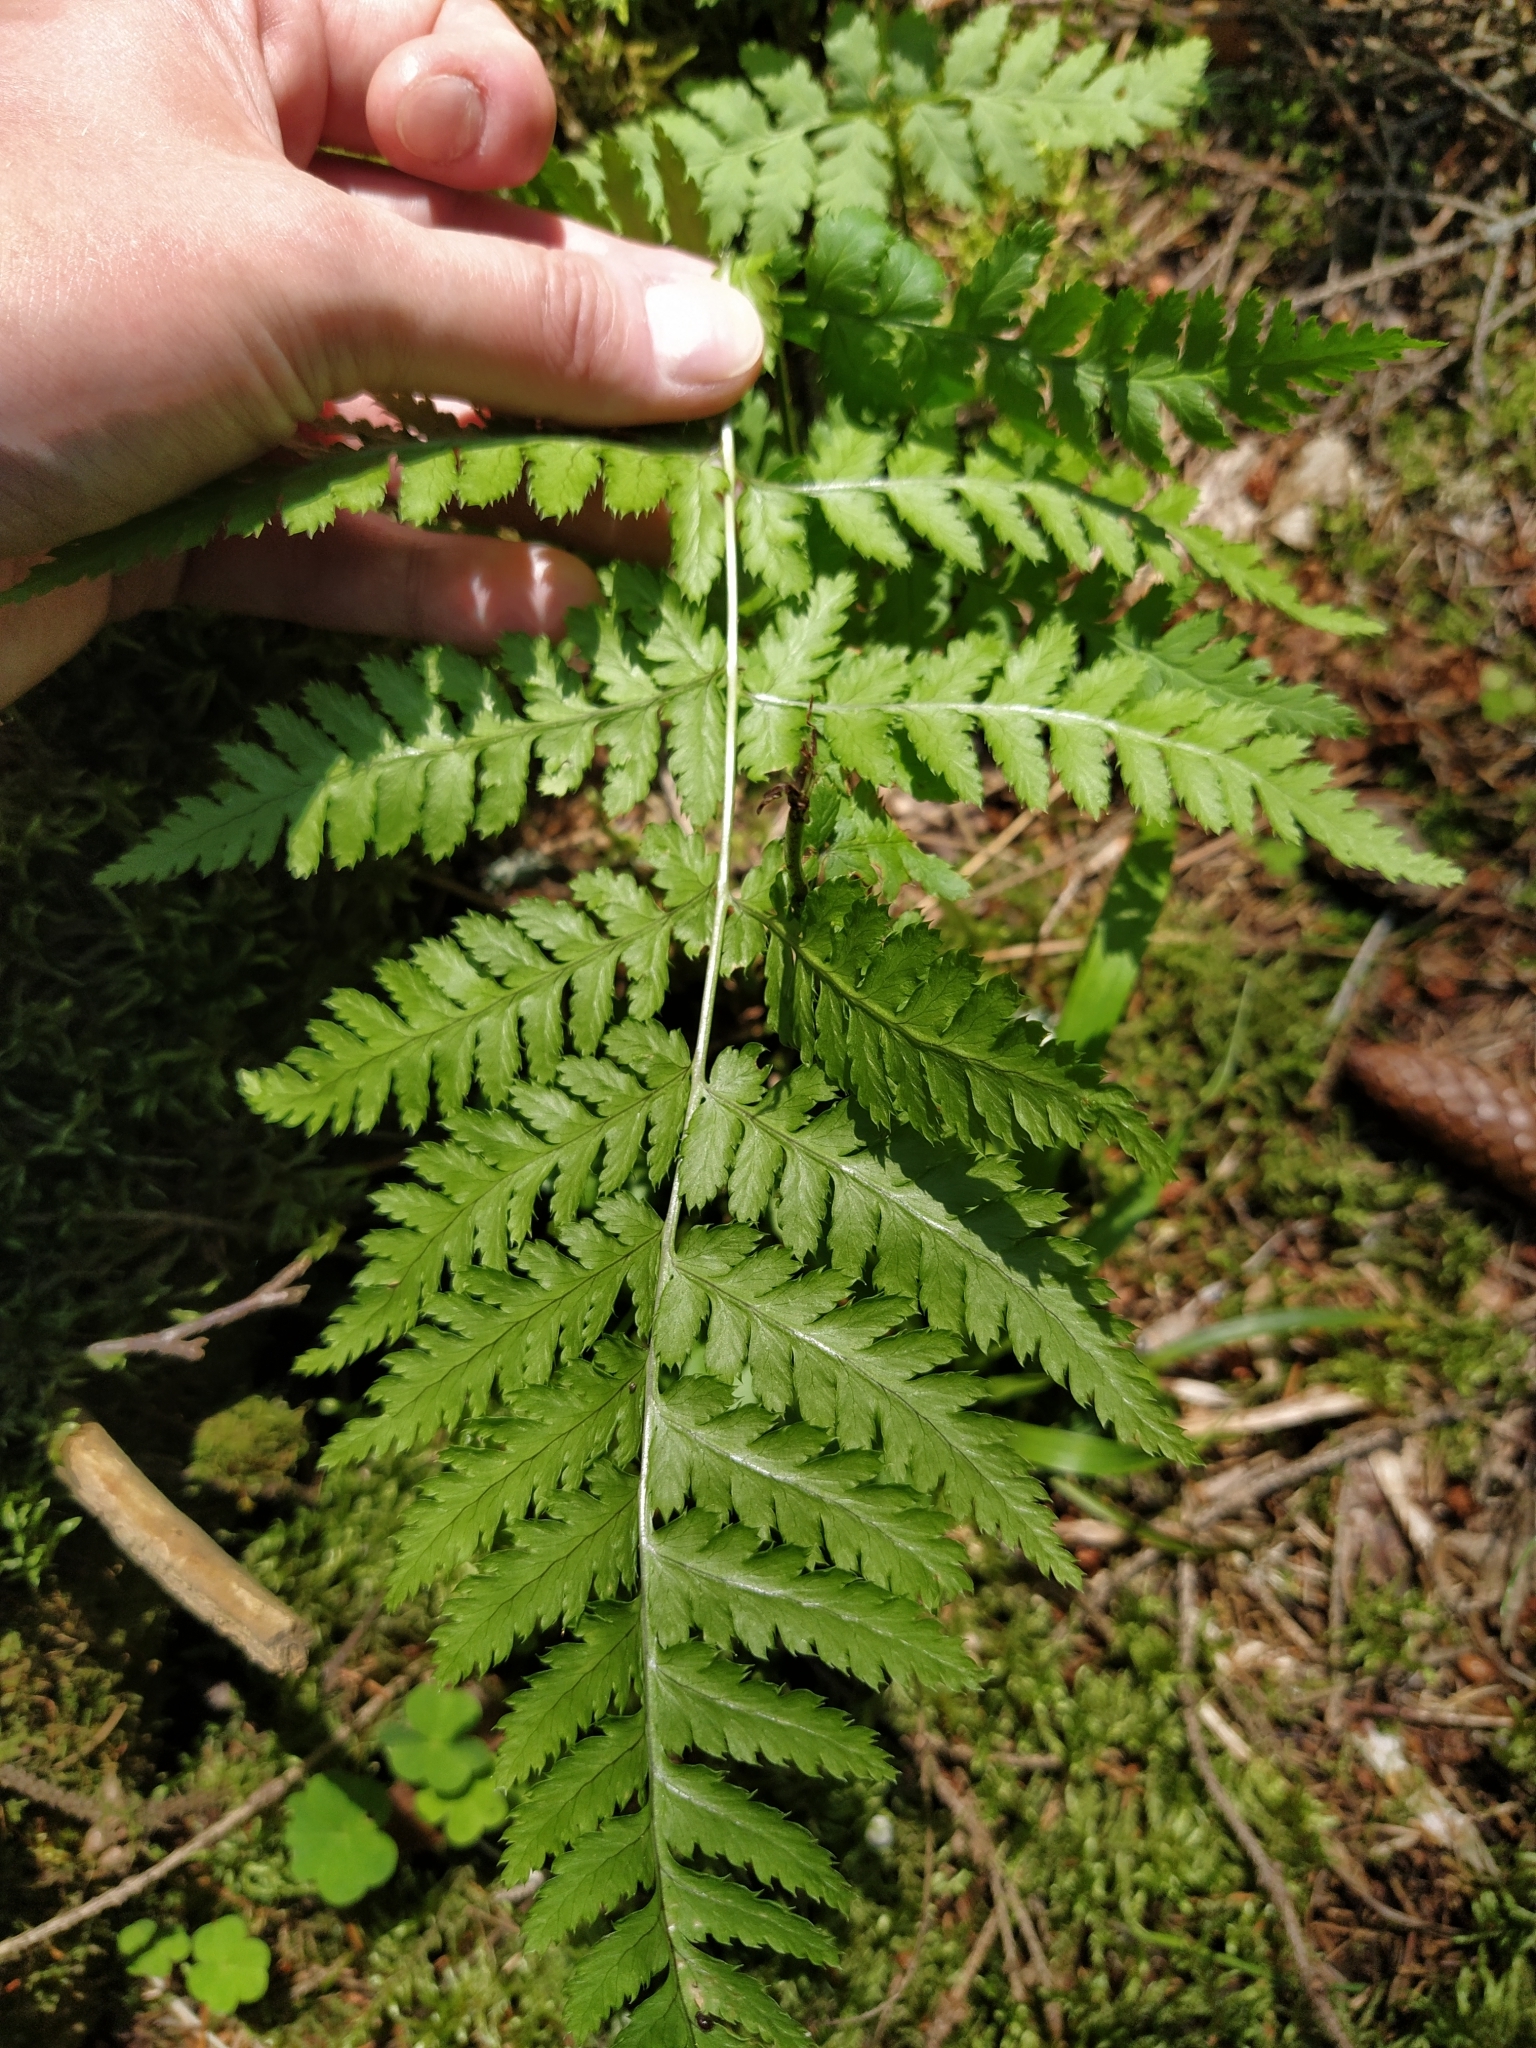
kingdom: Plantae
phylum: Tracheophyta
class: Polypodiopsida
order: Polypodiales
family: Dryopteridaceae
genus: Dryopteris
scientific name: Dryopteris carthusiana
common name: Narrow buckler-fern
